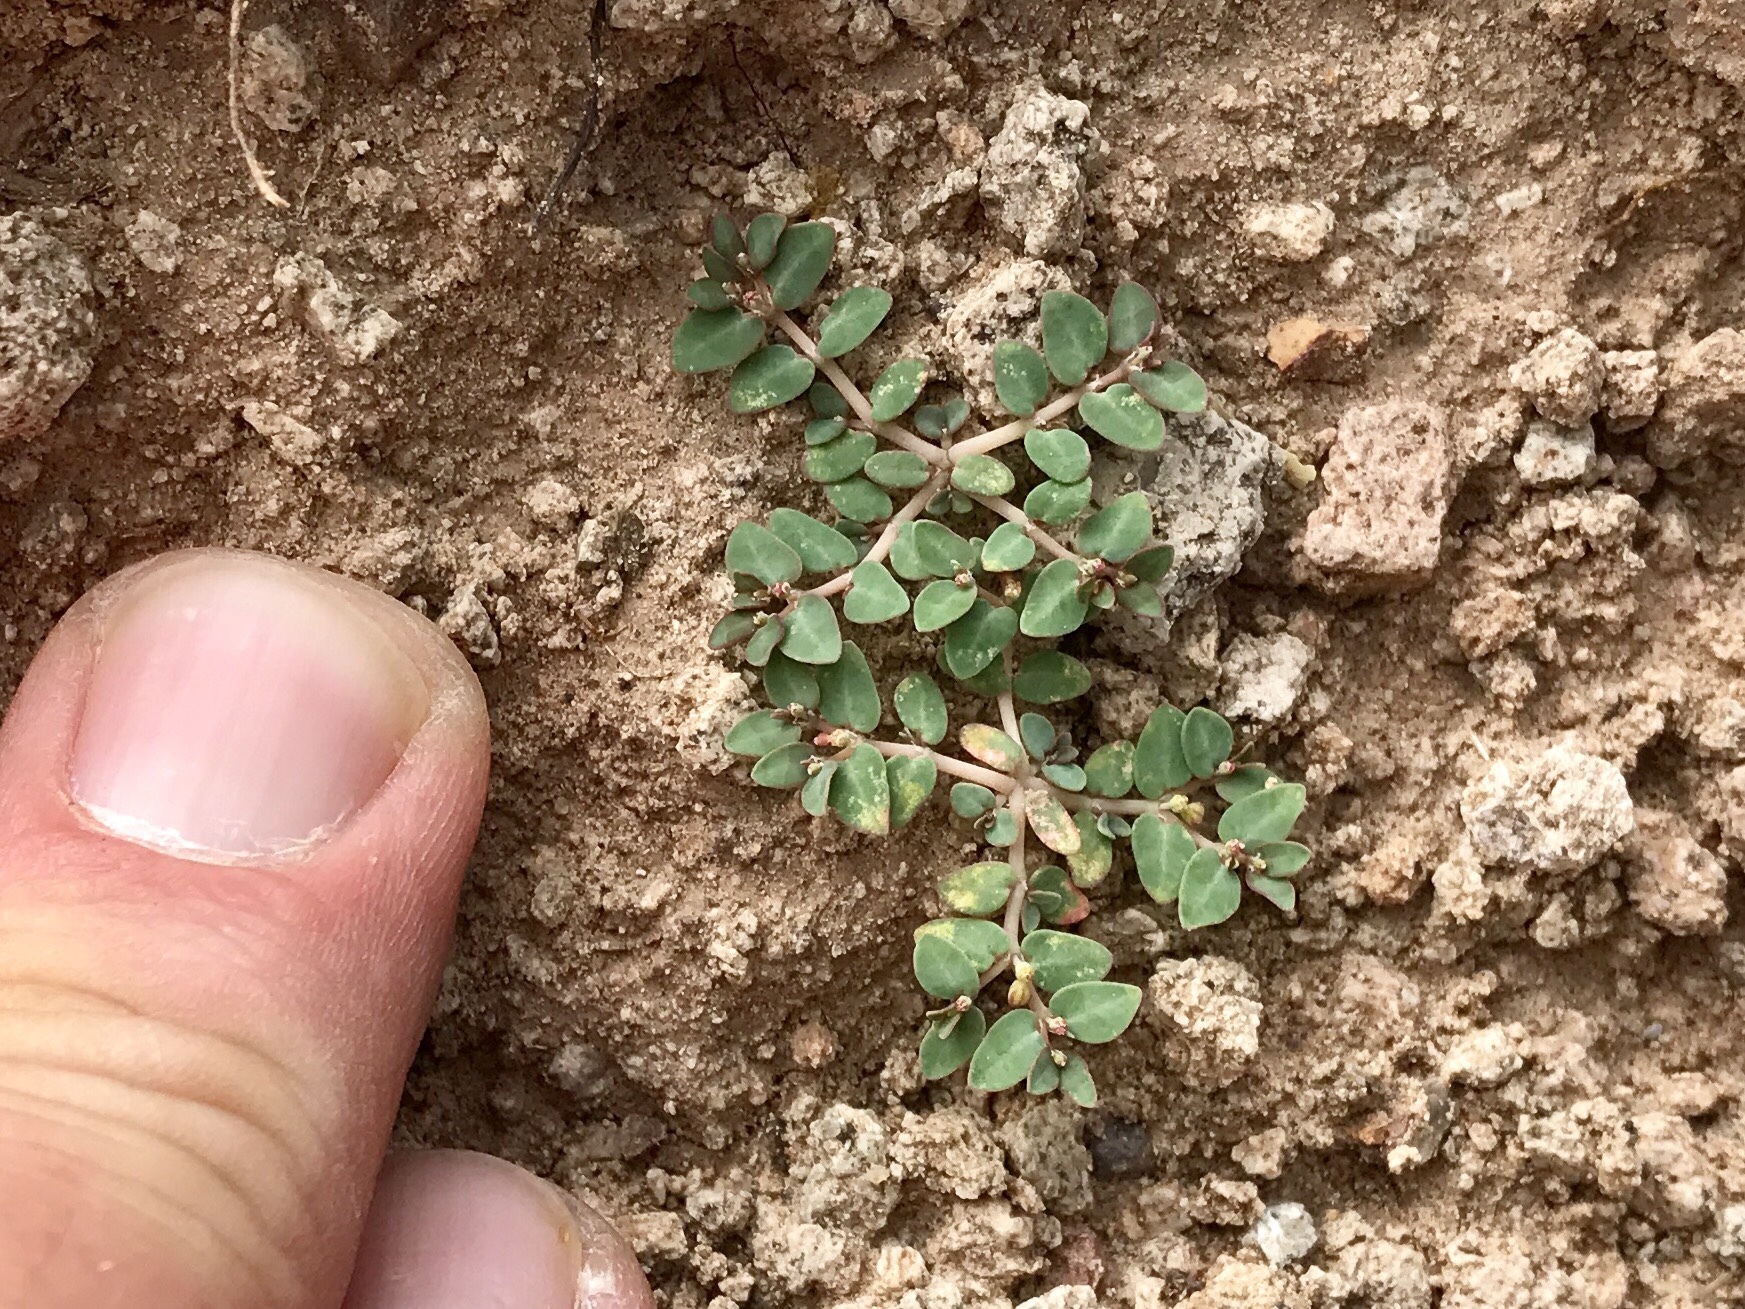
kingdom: Plantae
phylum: Tracheophyta
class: Magnoliopsida
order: Malpighiales
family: Euphorbiaceae
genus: Euphorbia
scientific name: Euphorbia micromera
